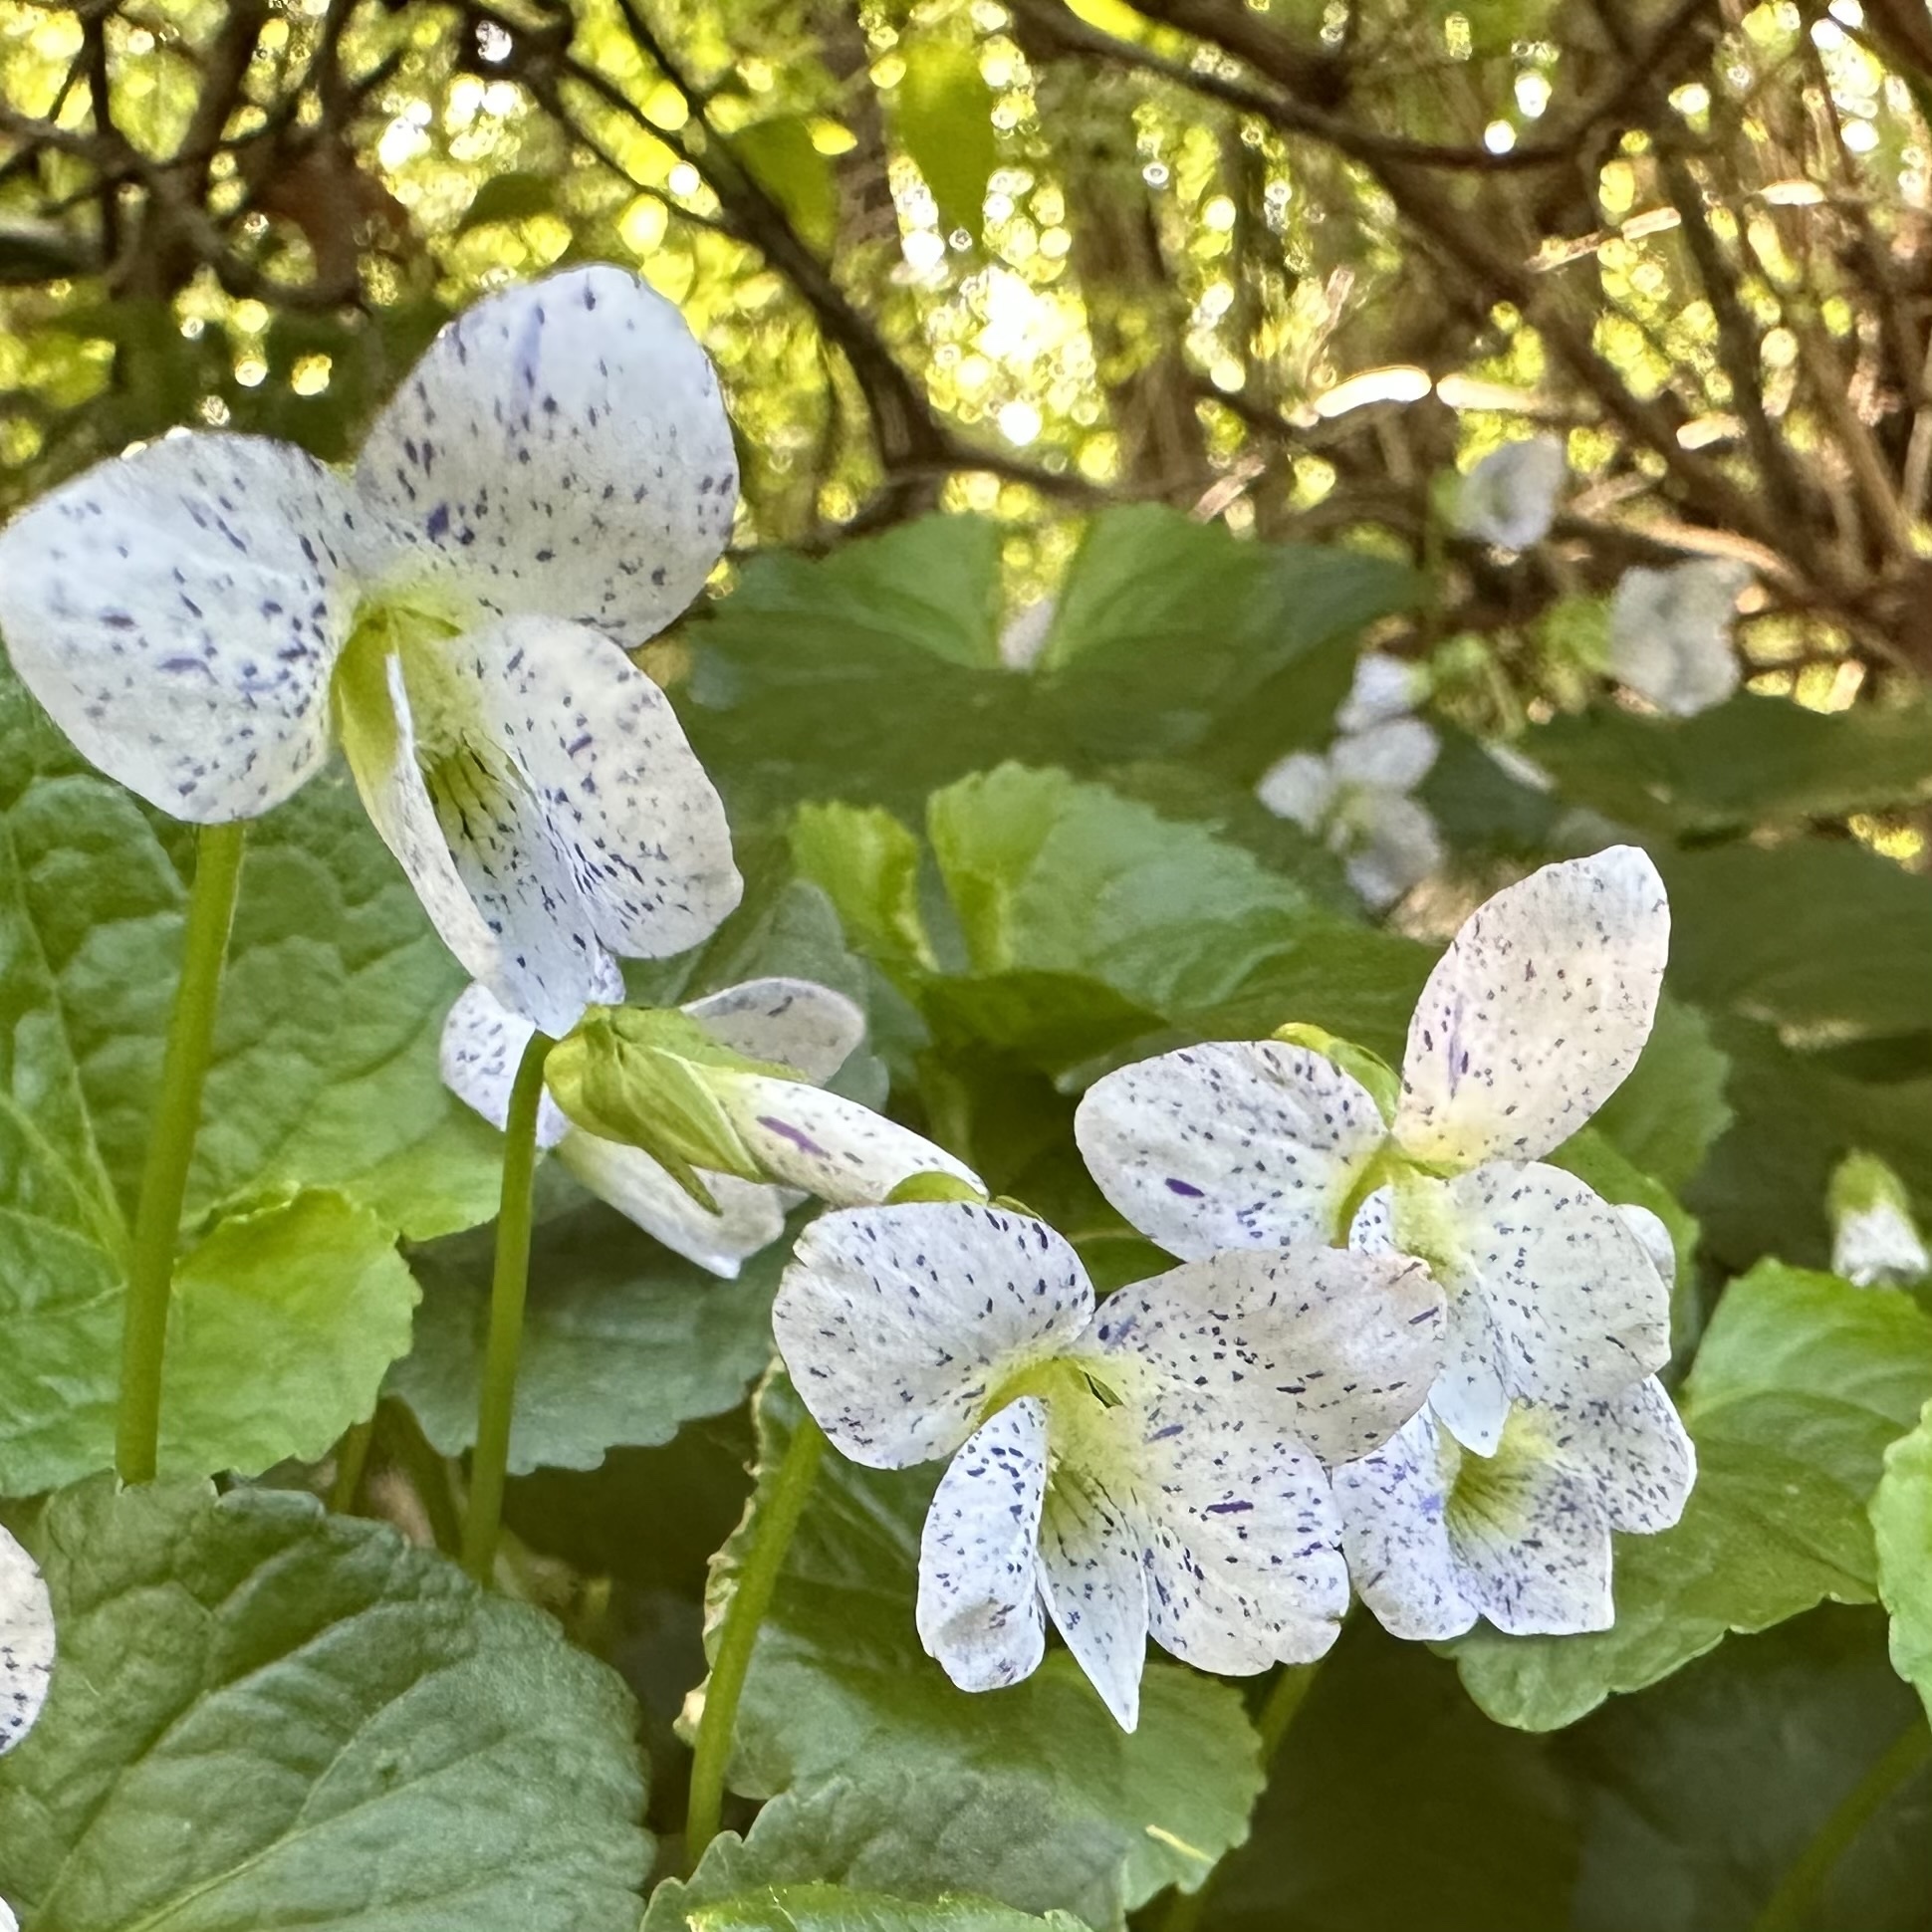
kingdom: Plantae
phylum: Tracheophyta
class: Magnoliopsida
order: Malpighiales
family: Violaceae
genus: Viola
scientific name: Viola sororia
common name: Dooryard violet
